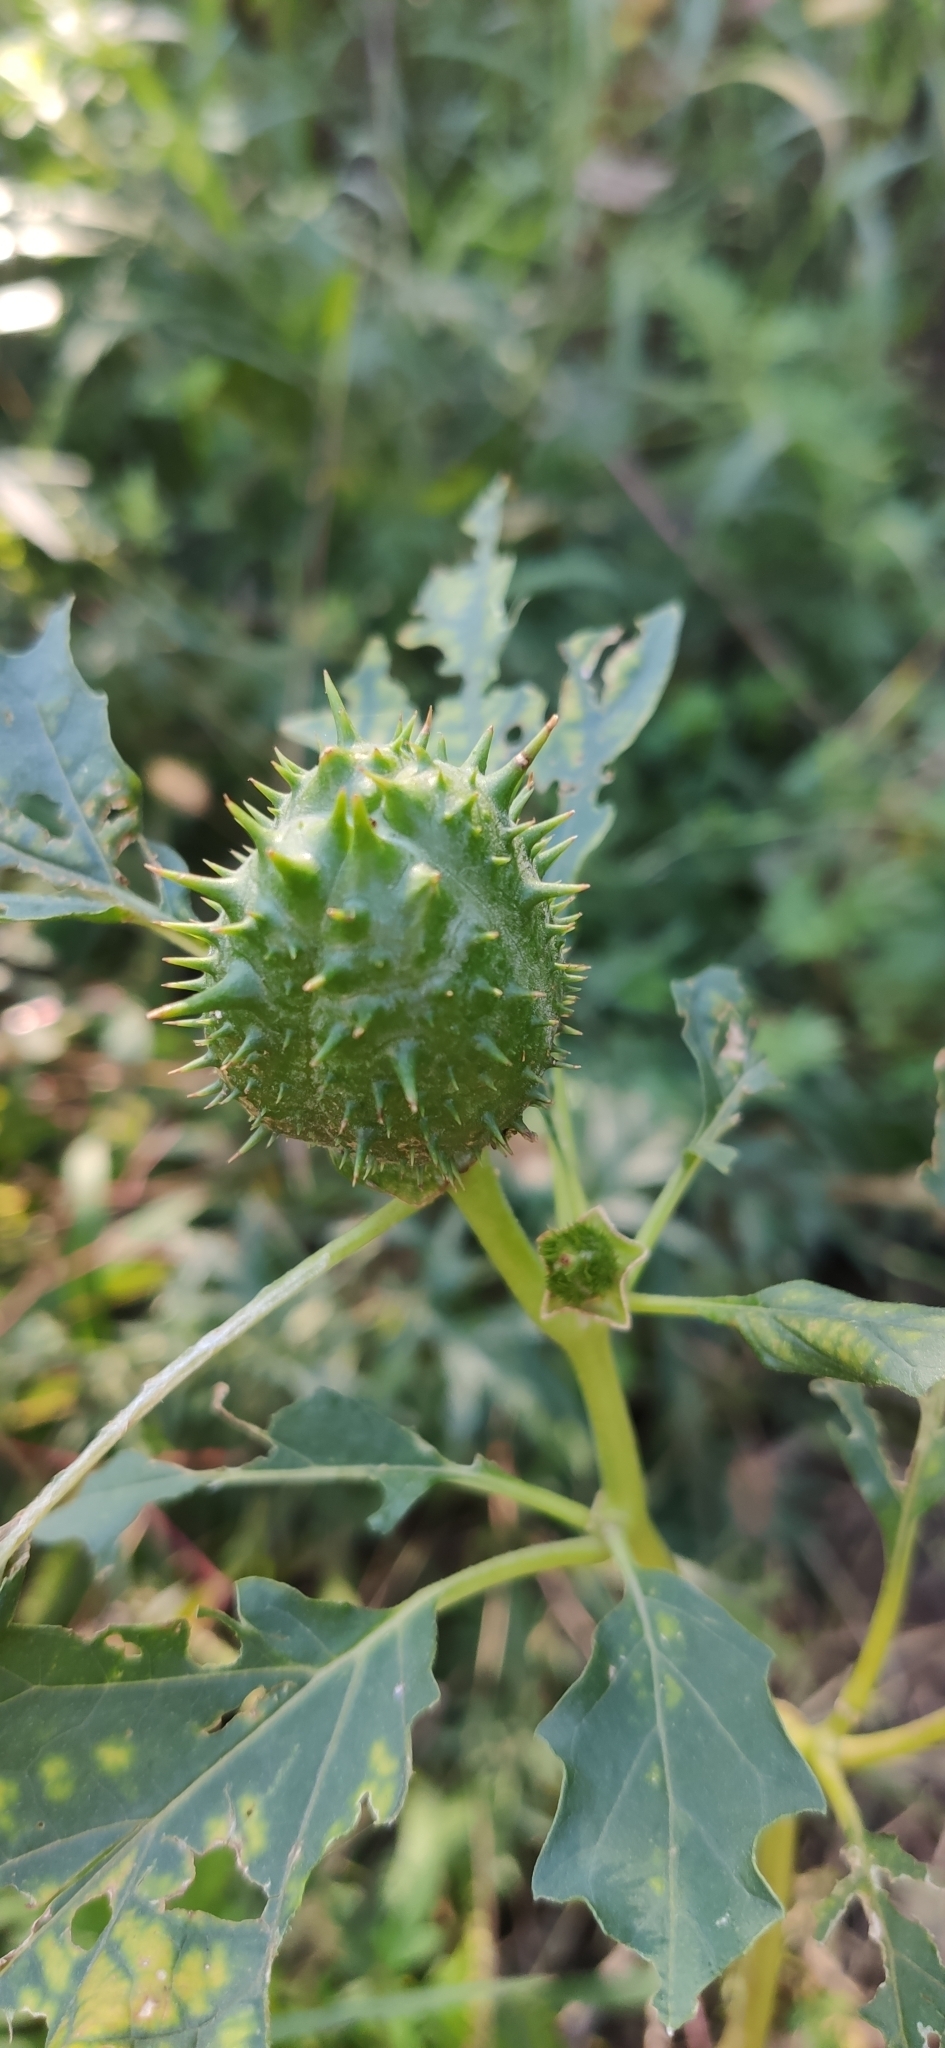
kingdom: Plantae
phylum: Tracheophyta
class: Magnoliopsida
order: Solanales
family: Solanaceae
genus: Datura
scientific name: Datura stramonium
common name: Thorn-apple
